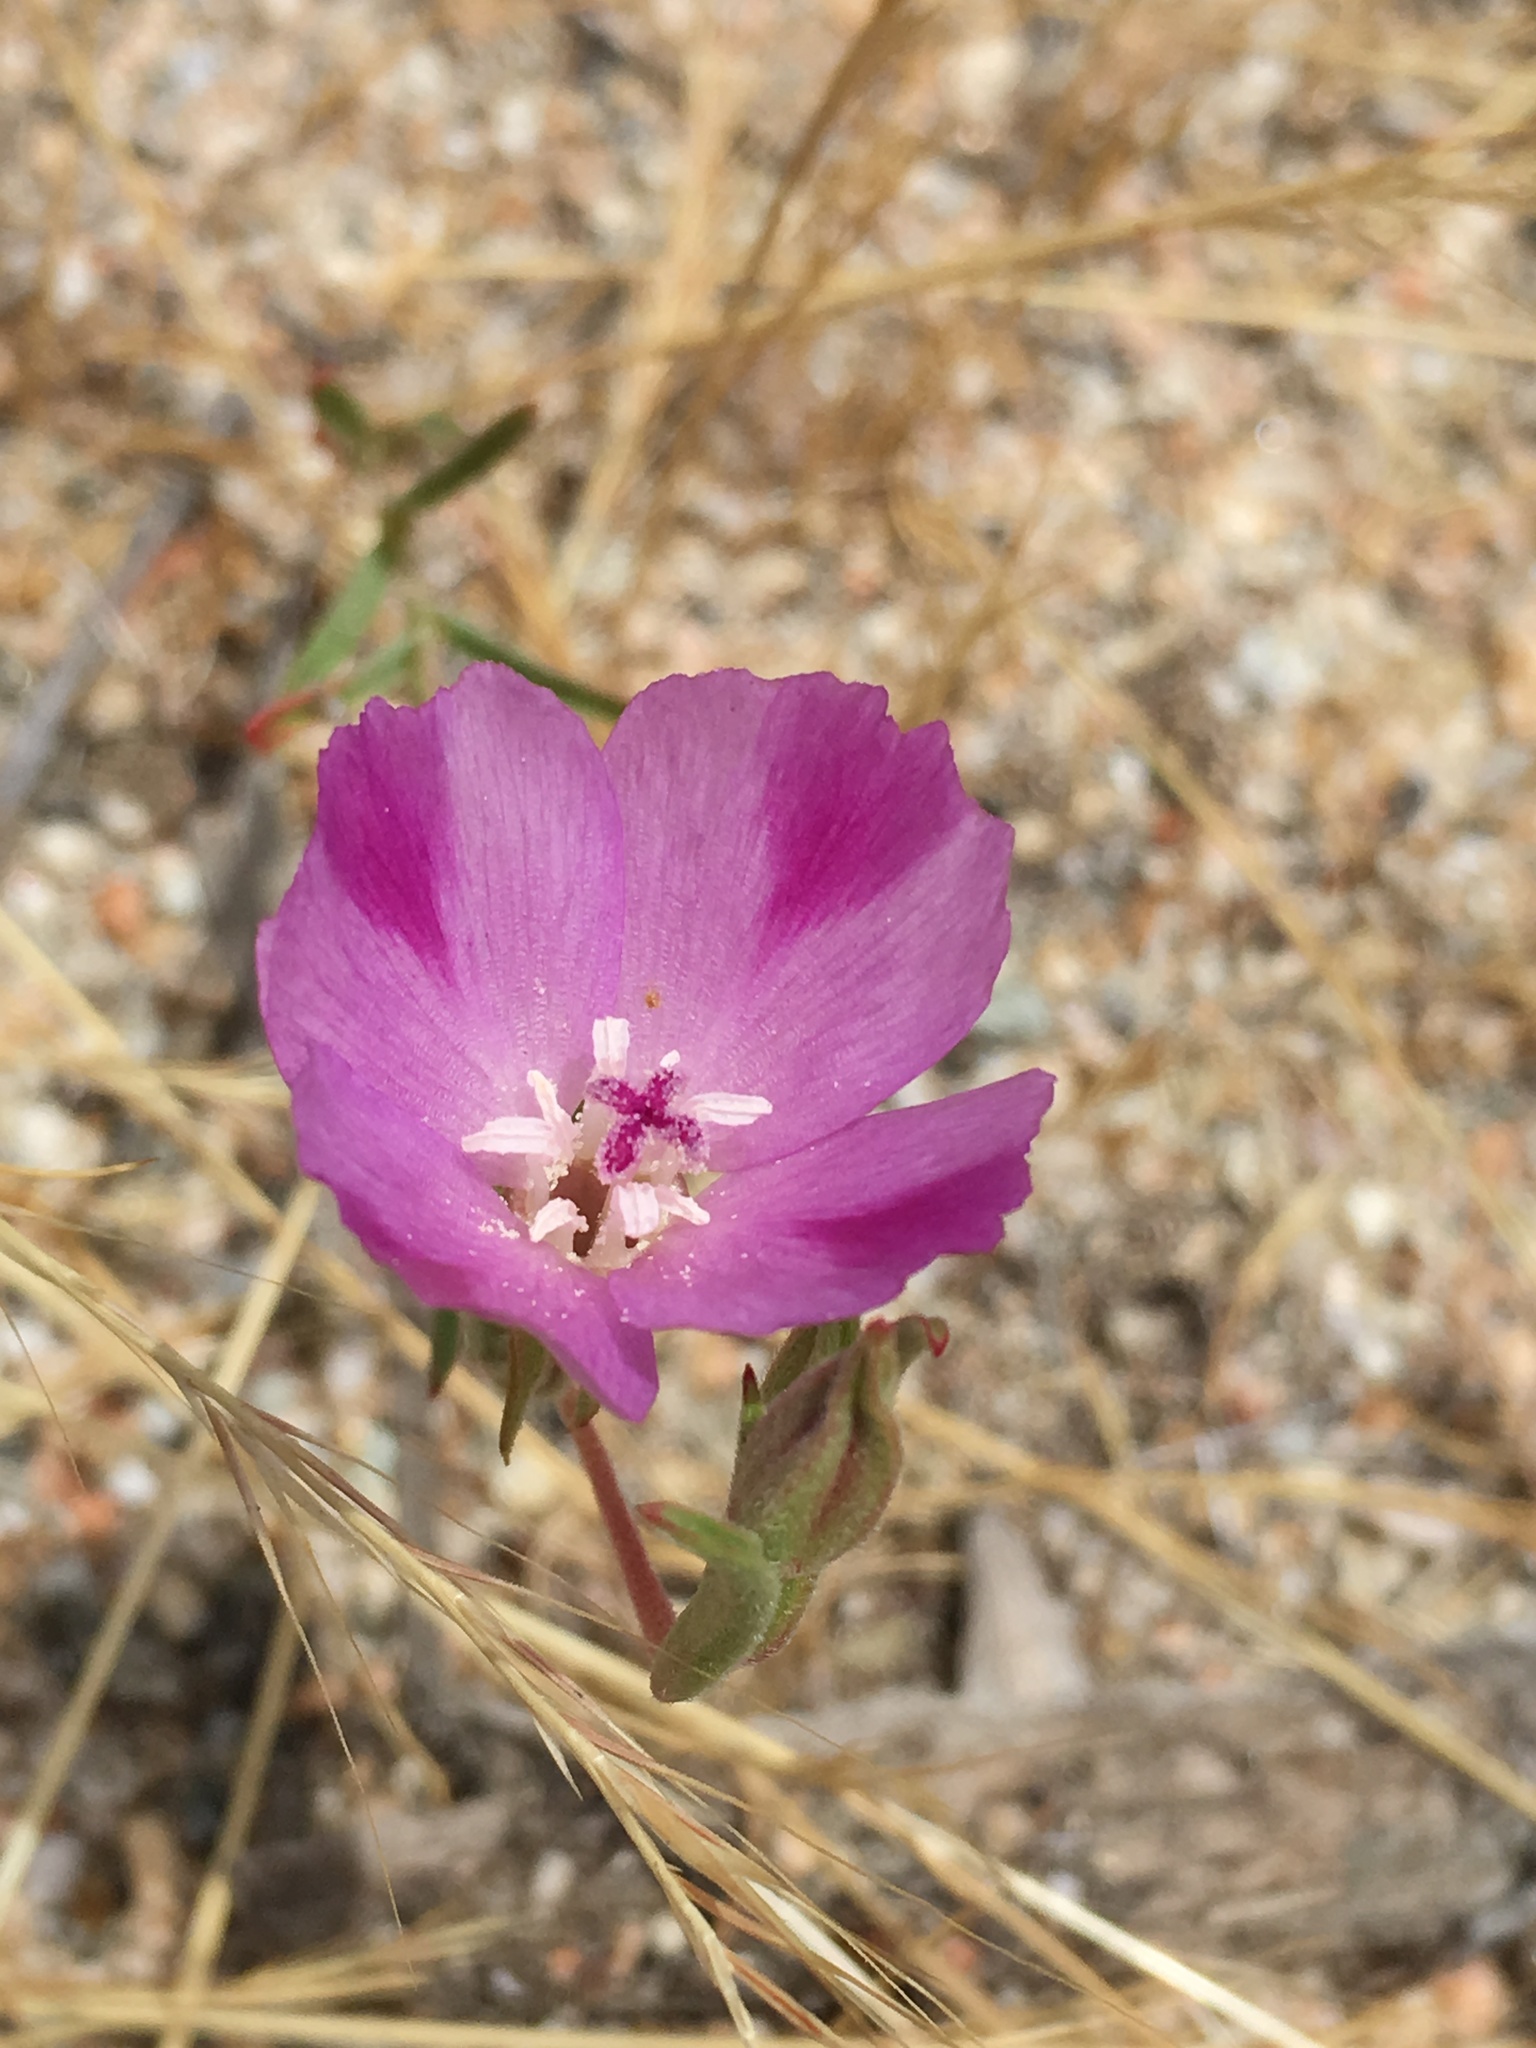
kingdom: Plantae
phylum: Tracheophyta
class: Magnoliopsida
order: Myrtales
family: Onagraceae
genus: Clarkia
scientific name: Clarkia purpurea
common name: Purple clarkia
